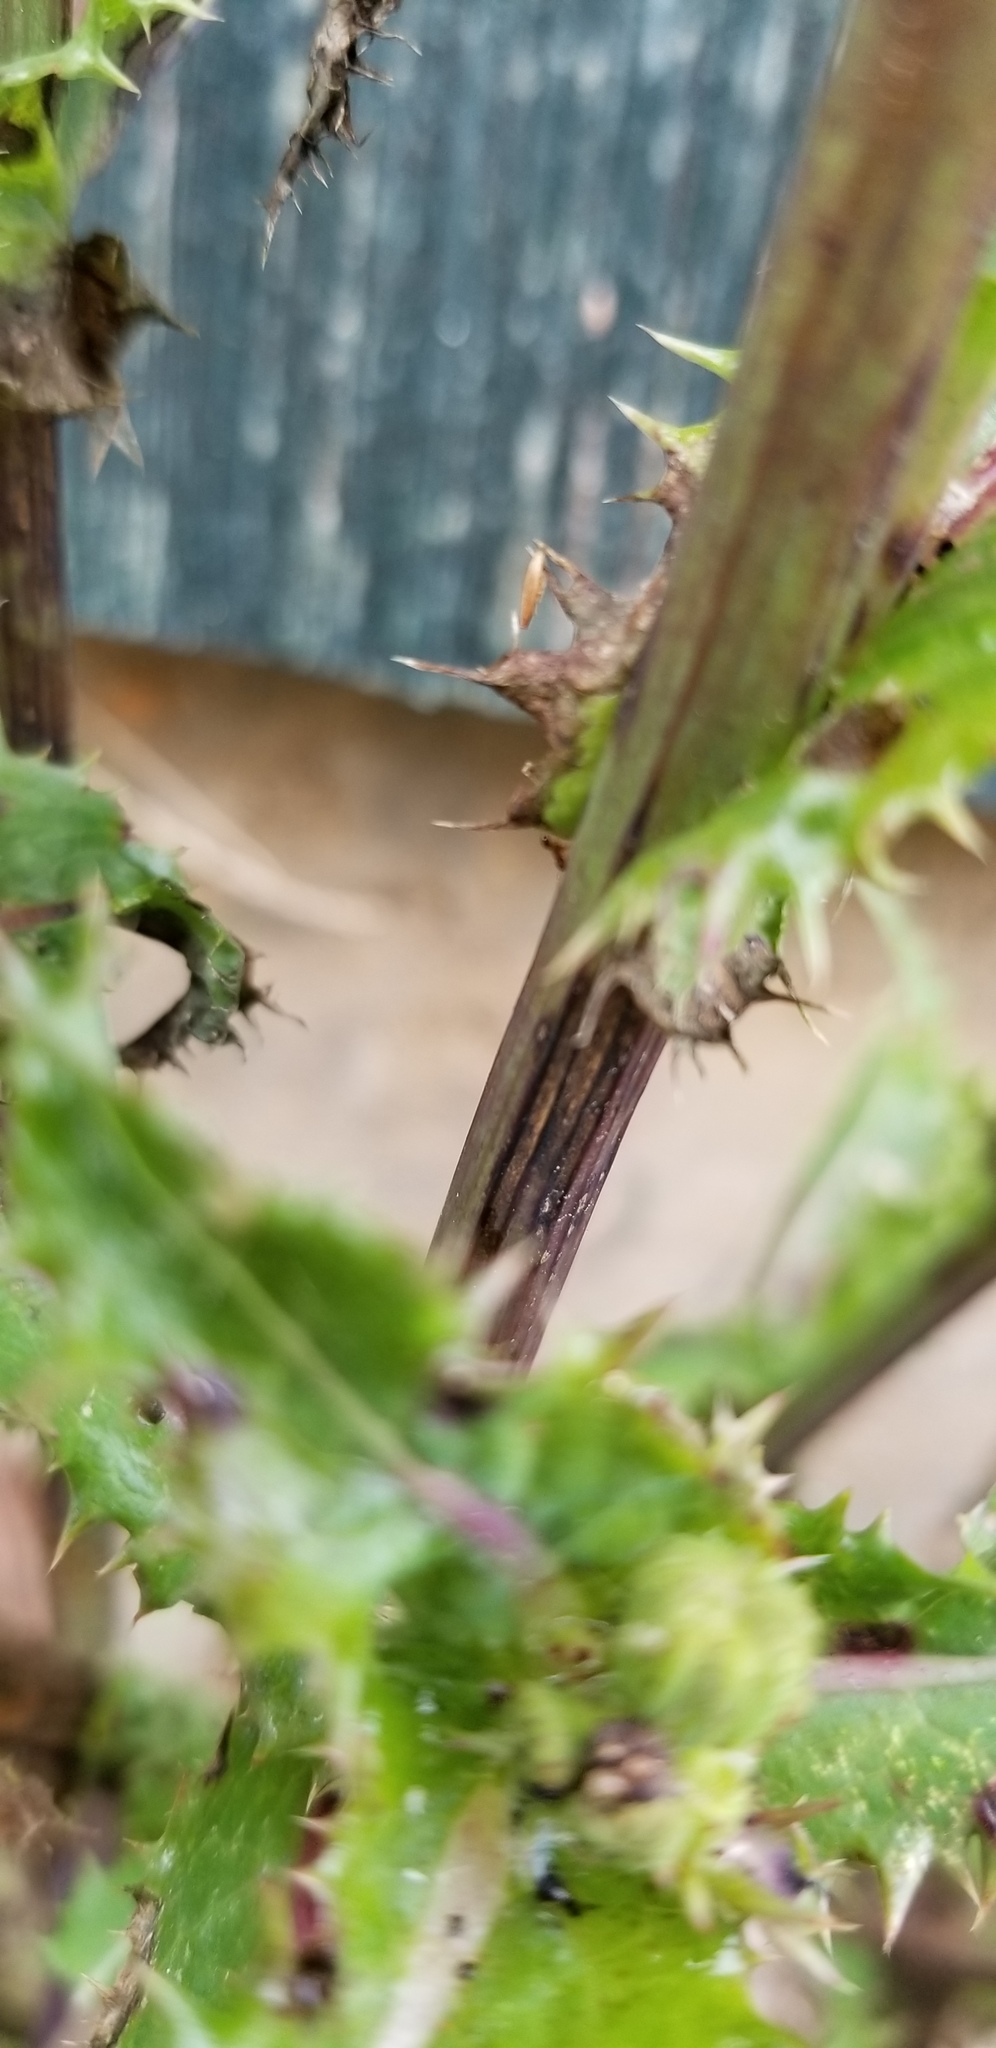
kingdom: Plantae
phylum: Tracheophyta
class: Magnoliopsida
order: Asterales
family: Asteraceae
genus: Sonchus
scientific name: Sonchus asper
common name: Prickly sow-thistle
